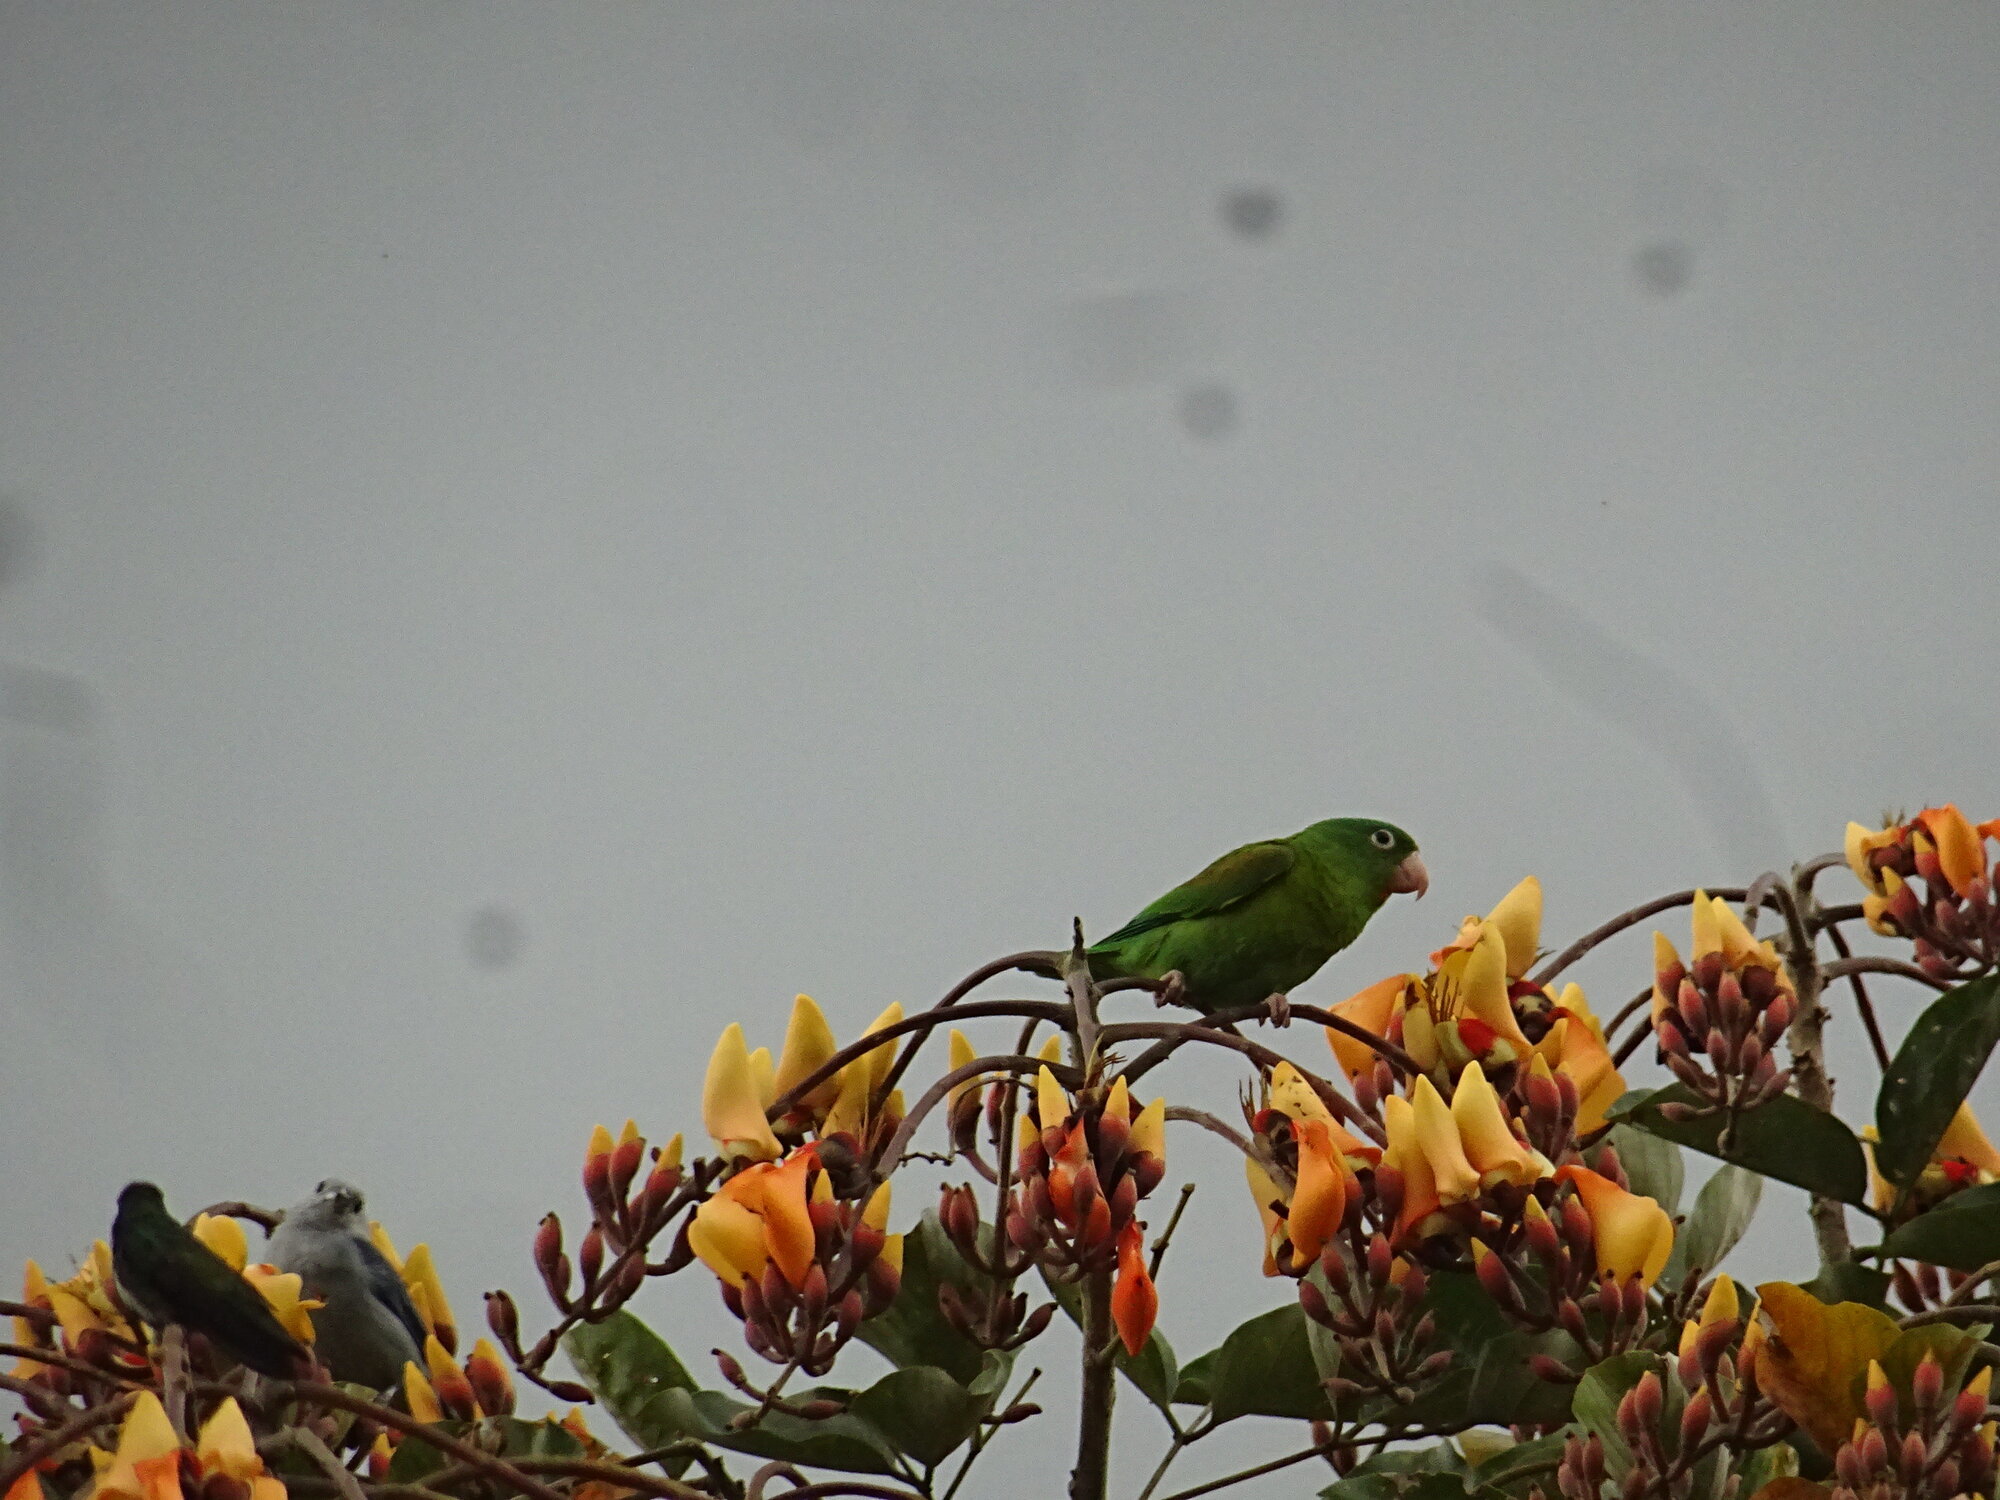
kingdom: Animalia
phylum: Chordata
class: Aves
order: Psittaciformes
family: Psittacidae
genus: Brotogeris
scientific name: Brotogeris jugularis
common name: Orange-chinned parakeet
